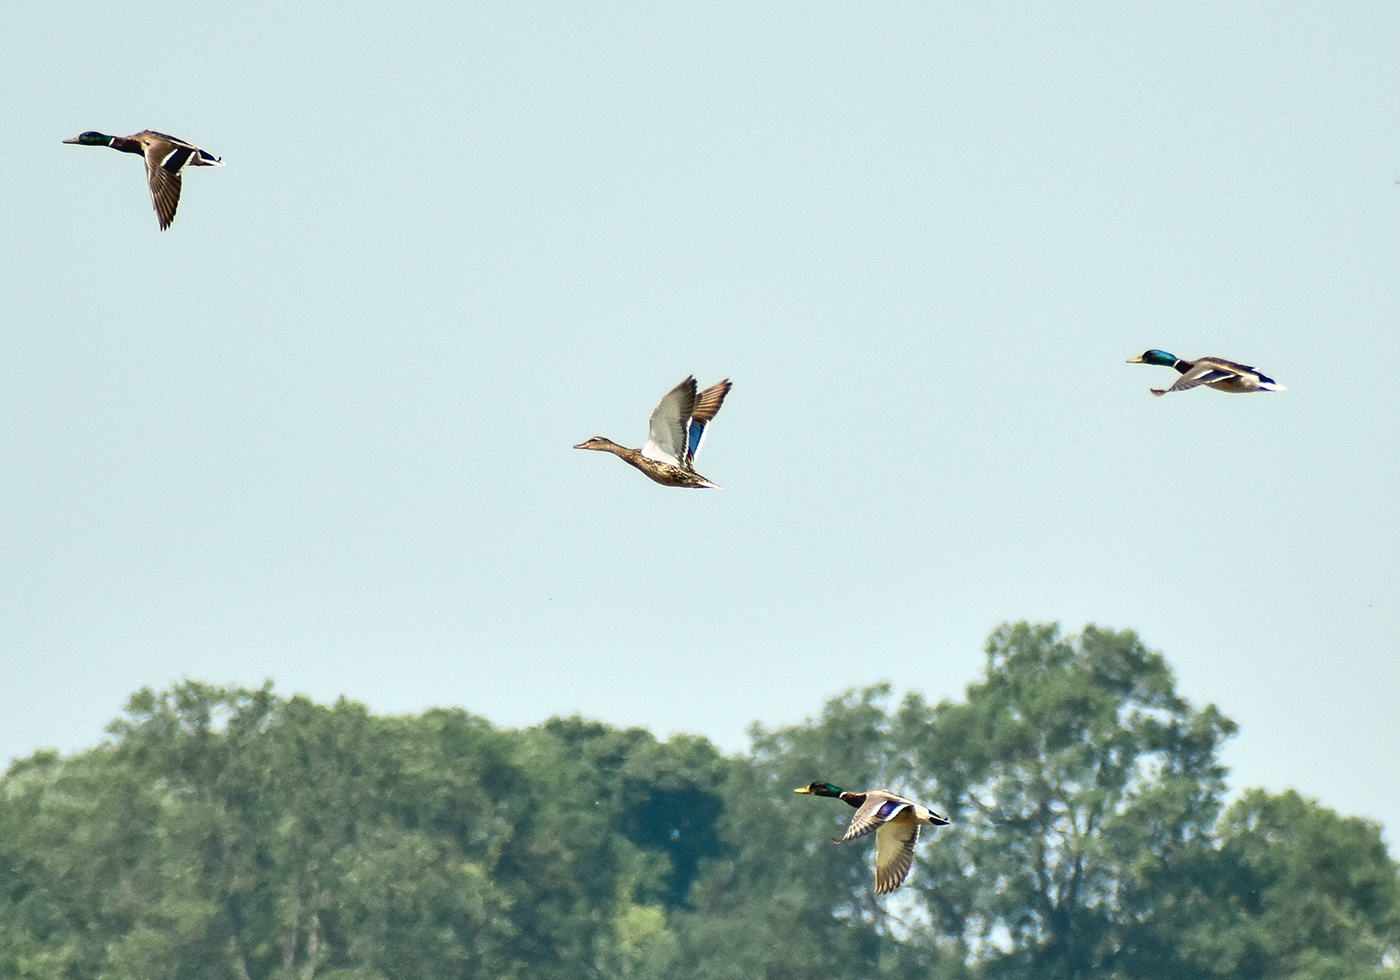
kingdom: Animalia
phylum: Chordata
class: Aves
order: Anseriformes
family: Anatidae
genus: Anas
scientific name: Anas platyrhynchos
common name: Mallard
